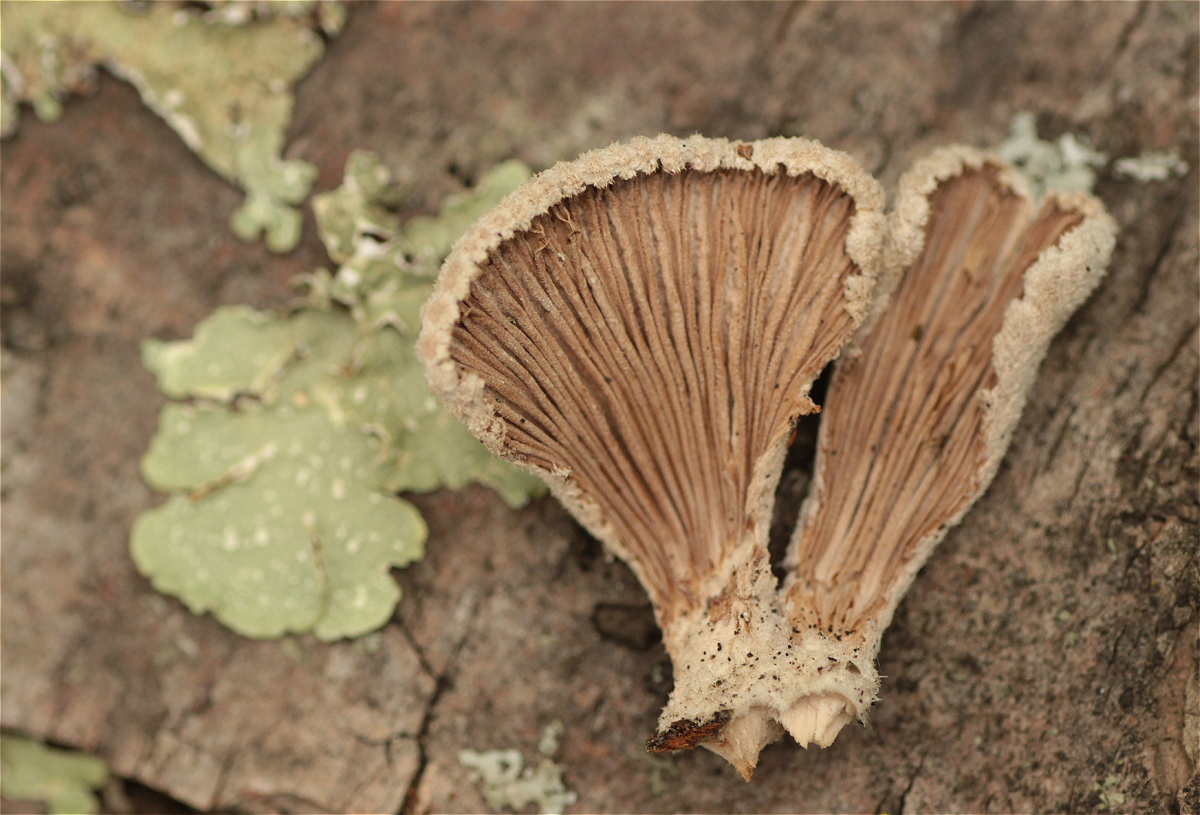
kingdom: Fungi
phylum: Basidiomycota
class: Agaricomycetes
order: Agaricales
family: Schizophyllaceae
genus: Schizophyllum
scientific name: Schizophyllum commune
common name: Common porecrust
